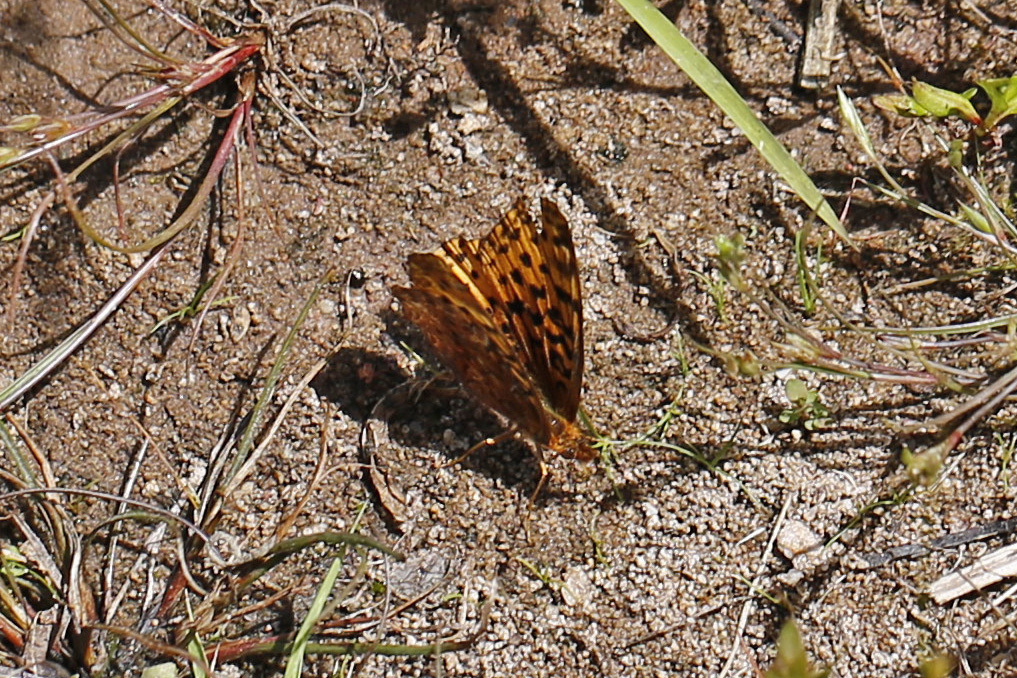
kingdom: Animalia
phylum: Arthropoda
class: Insecta
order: Lepidoptera
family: Nymphalidae
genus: Clossiana
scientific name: Clossiana toddi
